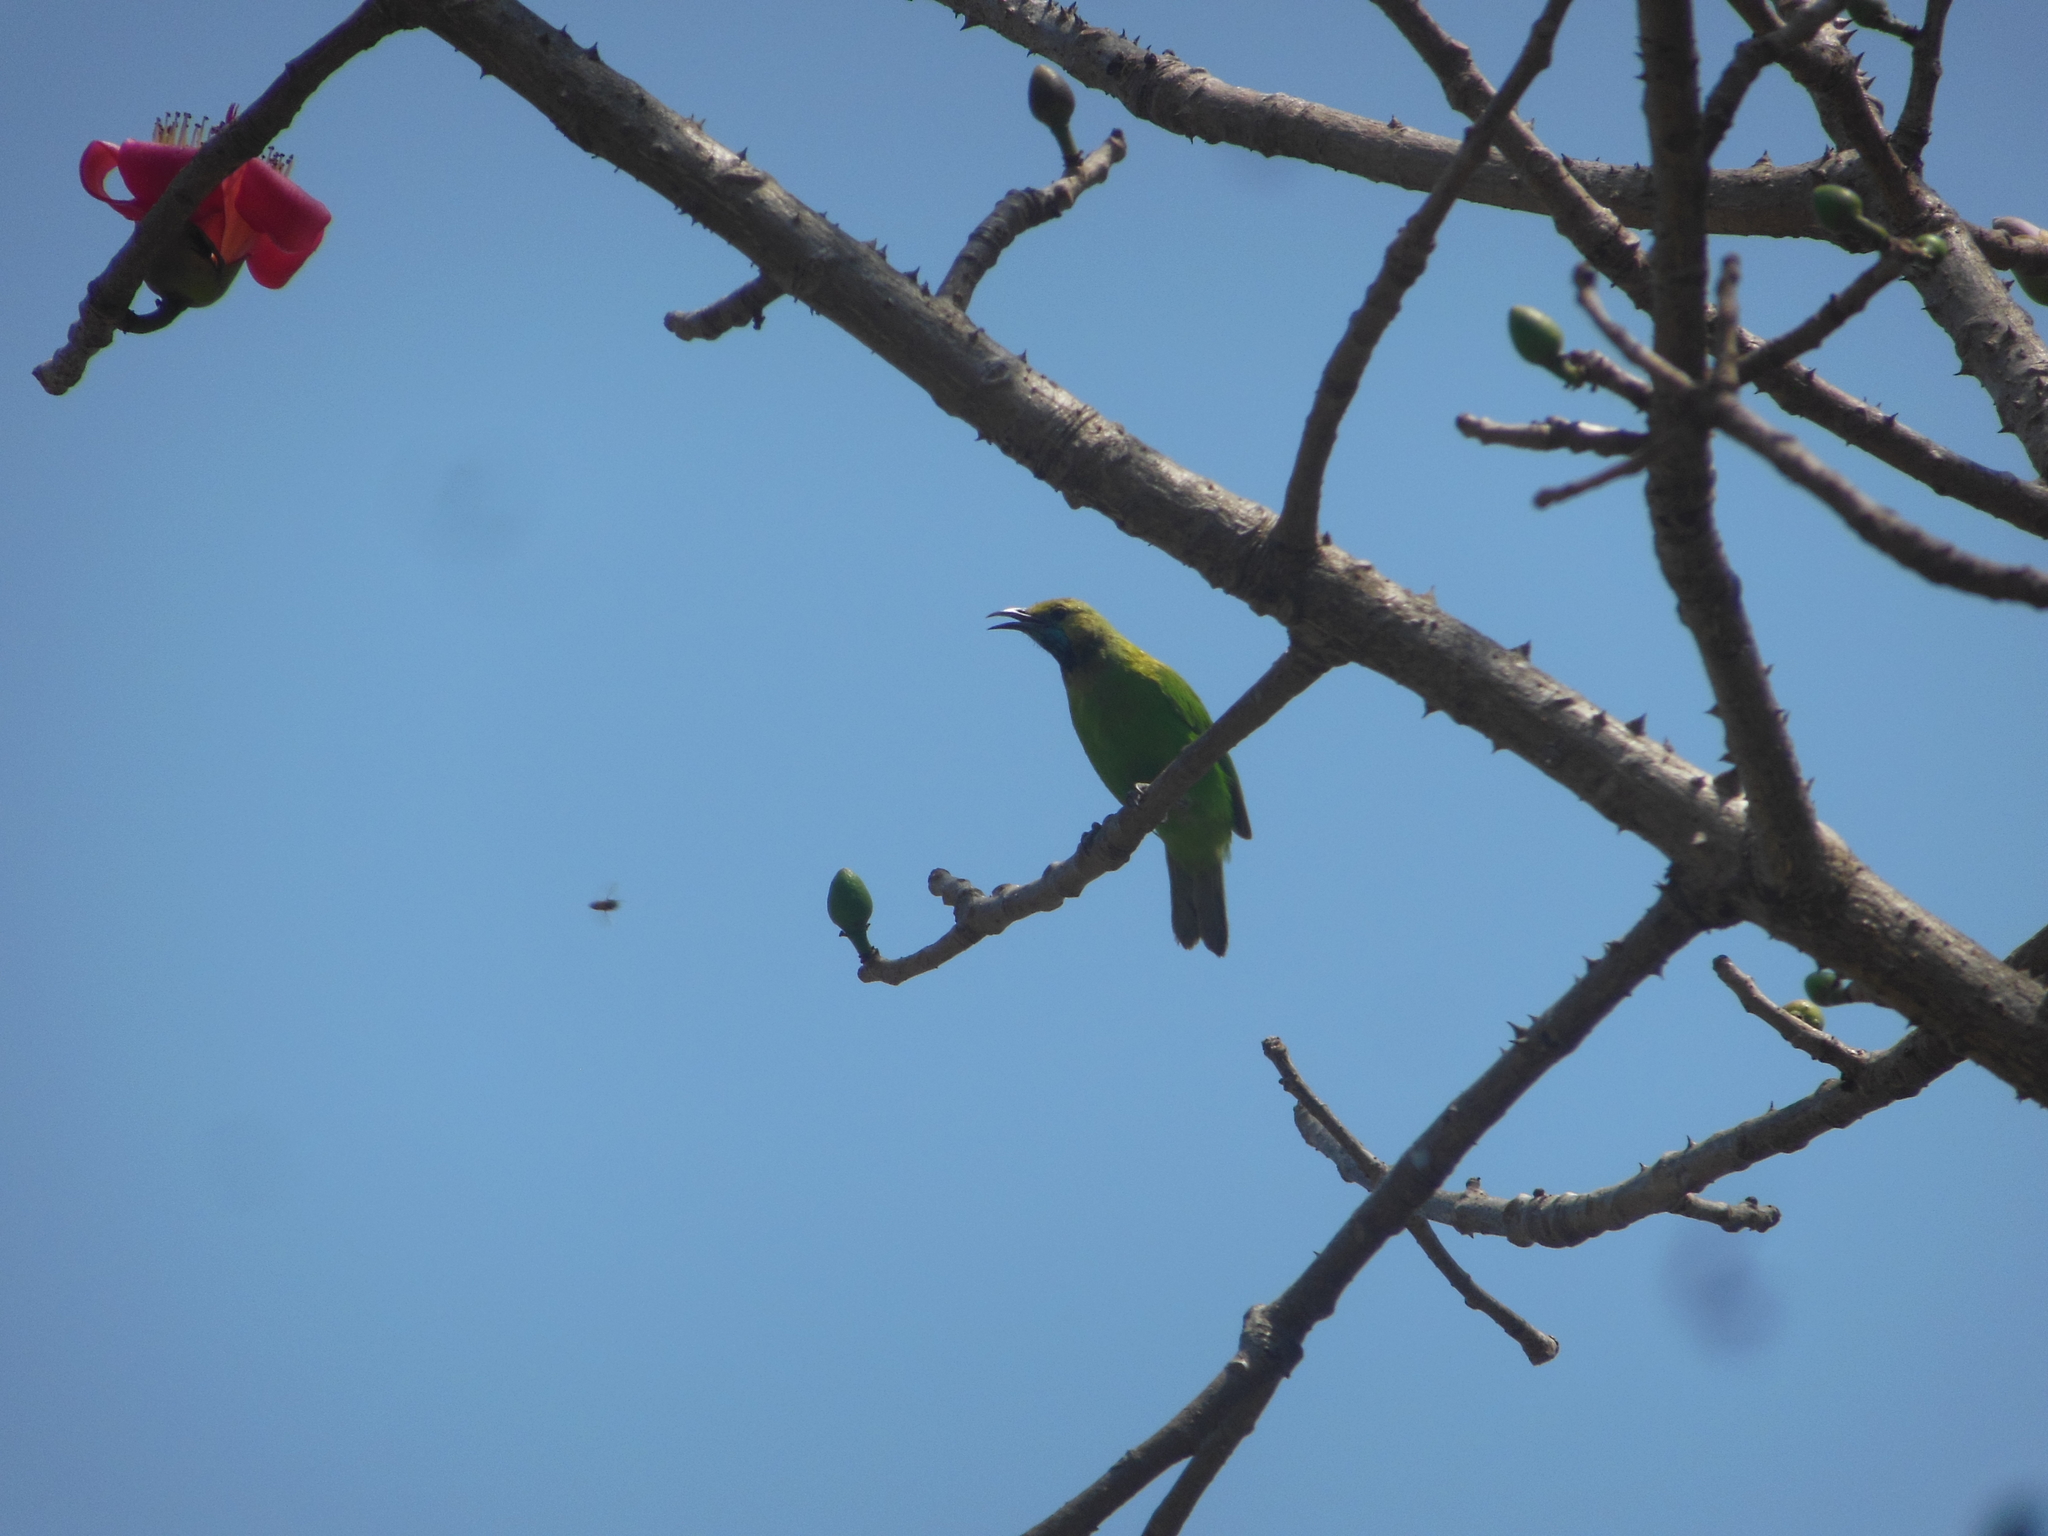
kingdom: Animalia
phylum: Chordata
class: Aves
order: Passeriformes
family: Chloropseidae
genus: Chloropsis
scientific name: Chloropsis jerdoni
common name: Jerdon's leafbird
